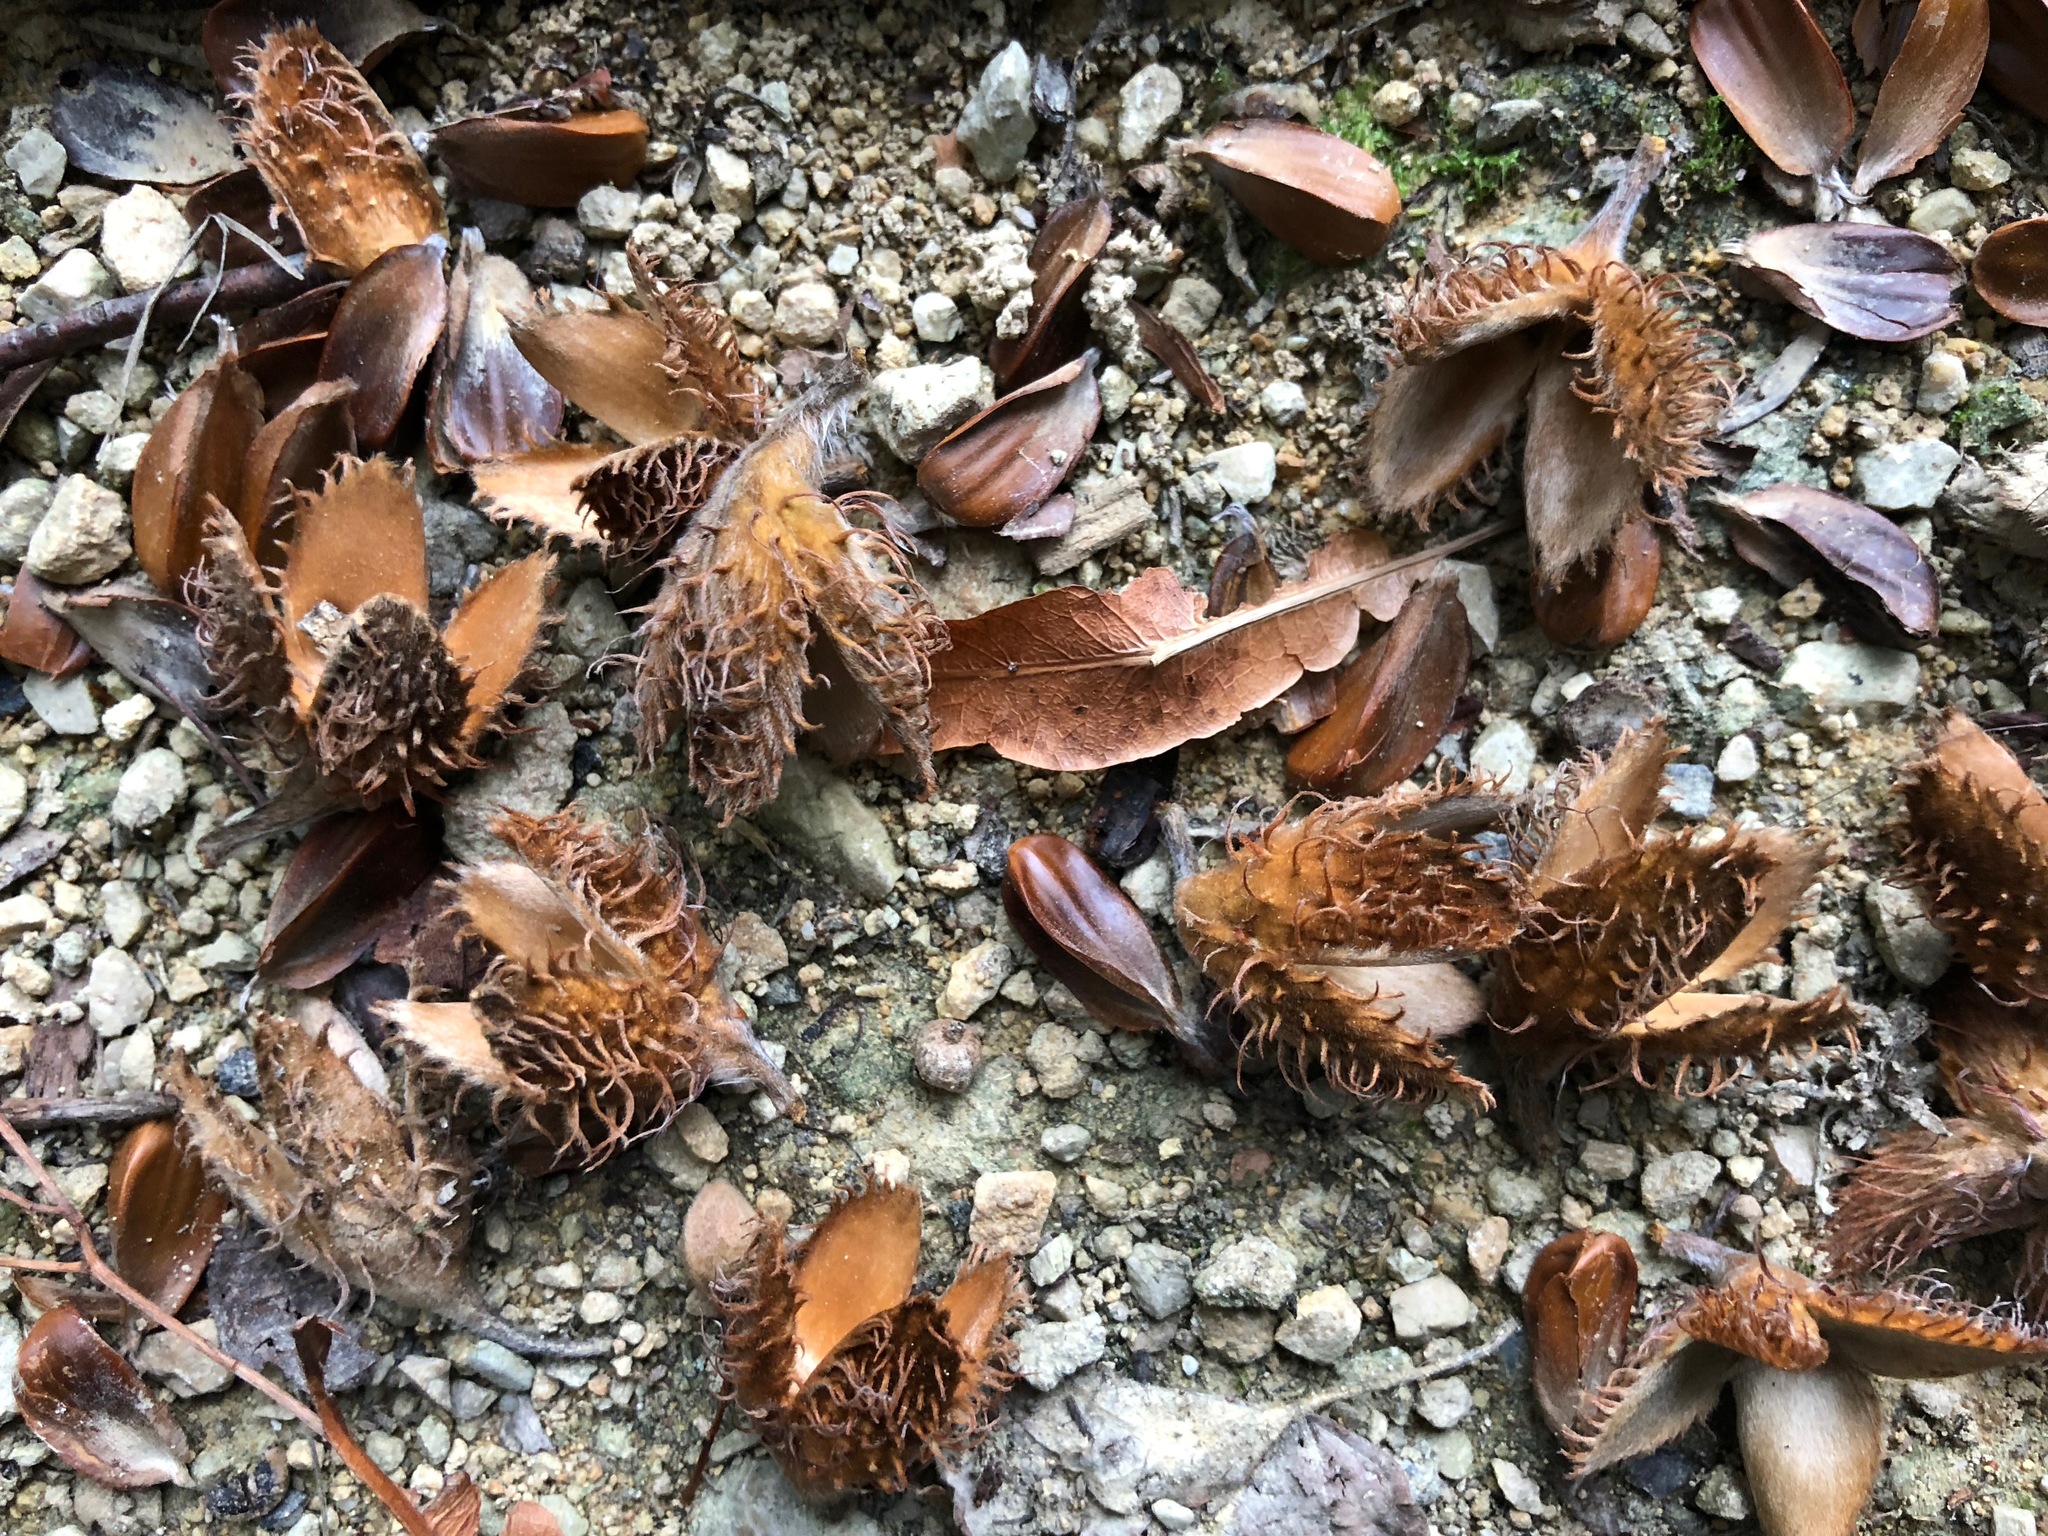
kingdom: Plantae
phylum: Tracheophyta
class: Magnoliopsida
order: Fagales
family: Fagaceae
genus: Fagus
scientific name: Fagus sylvatica
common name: Beech
